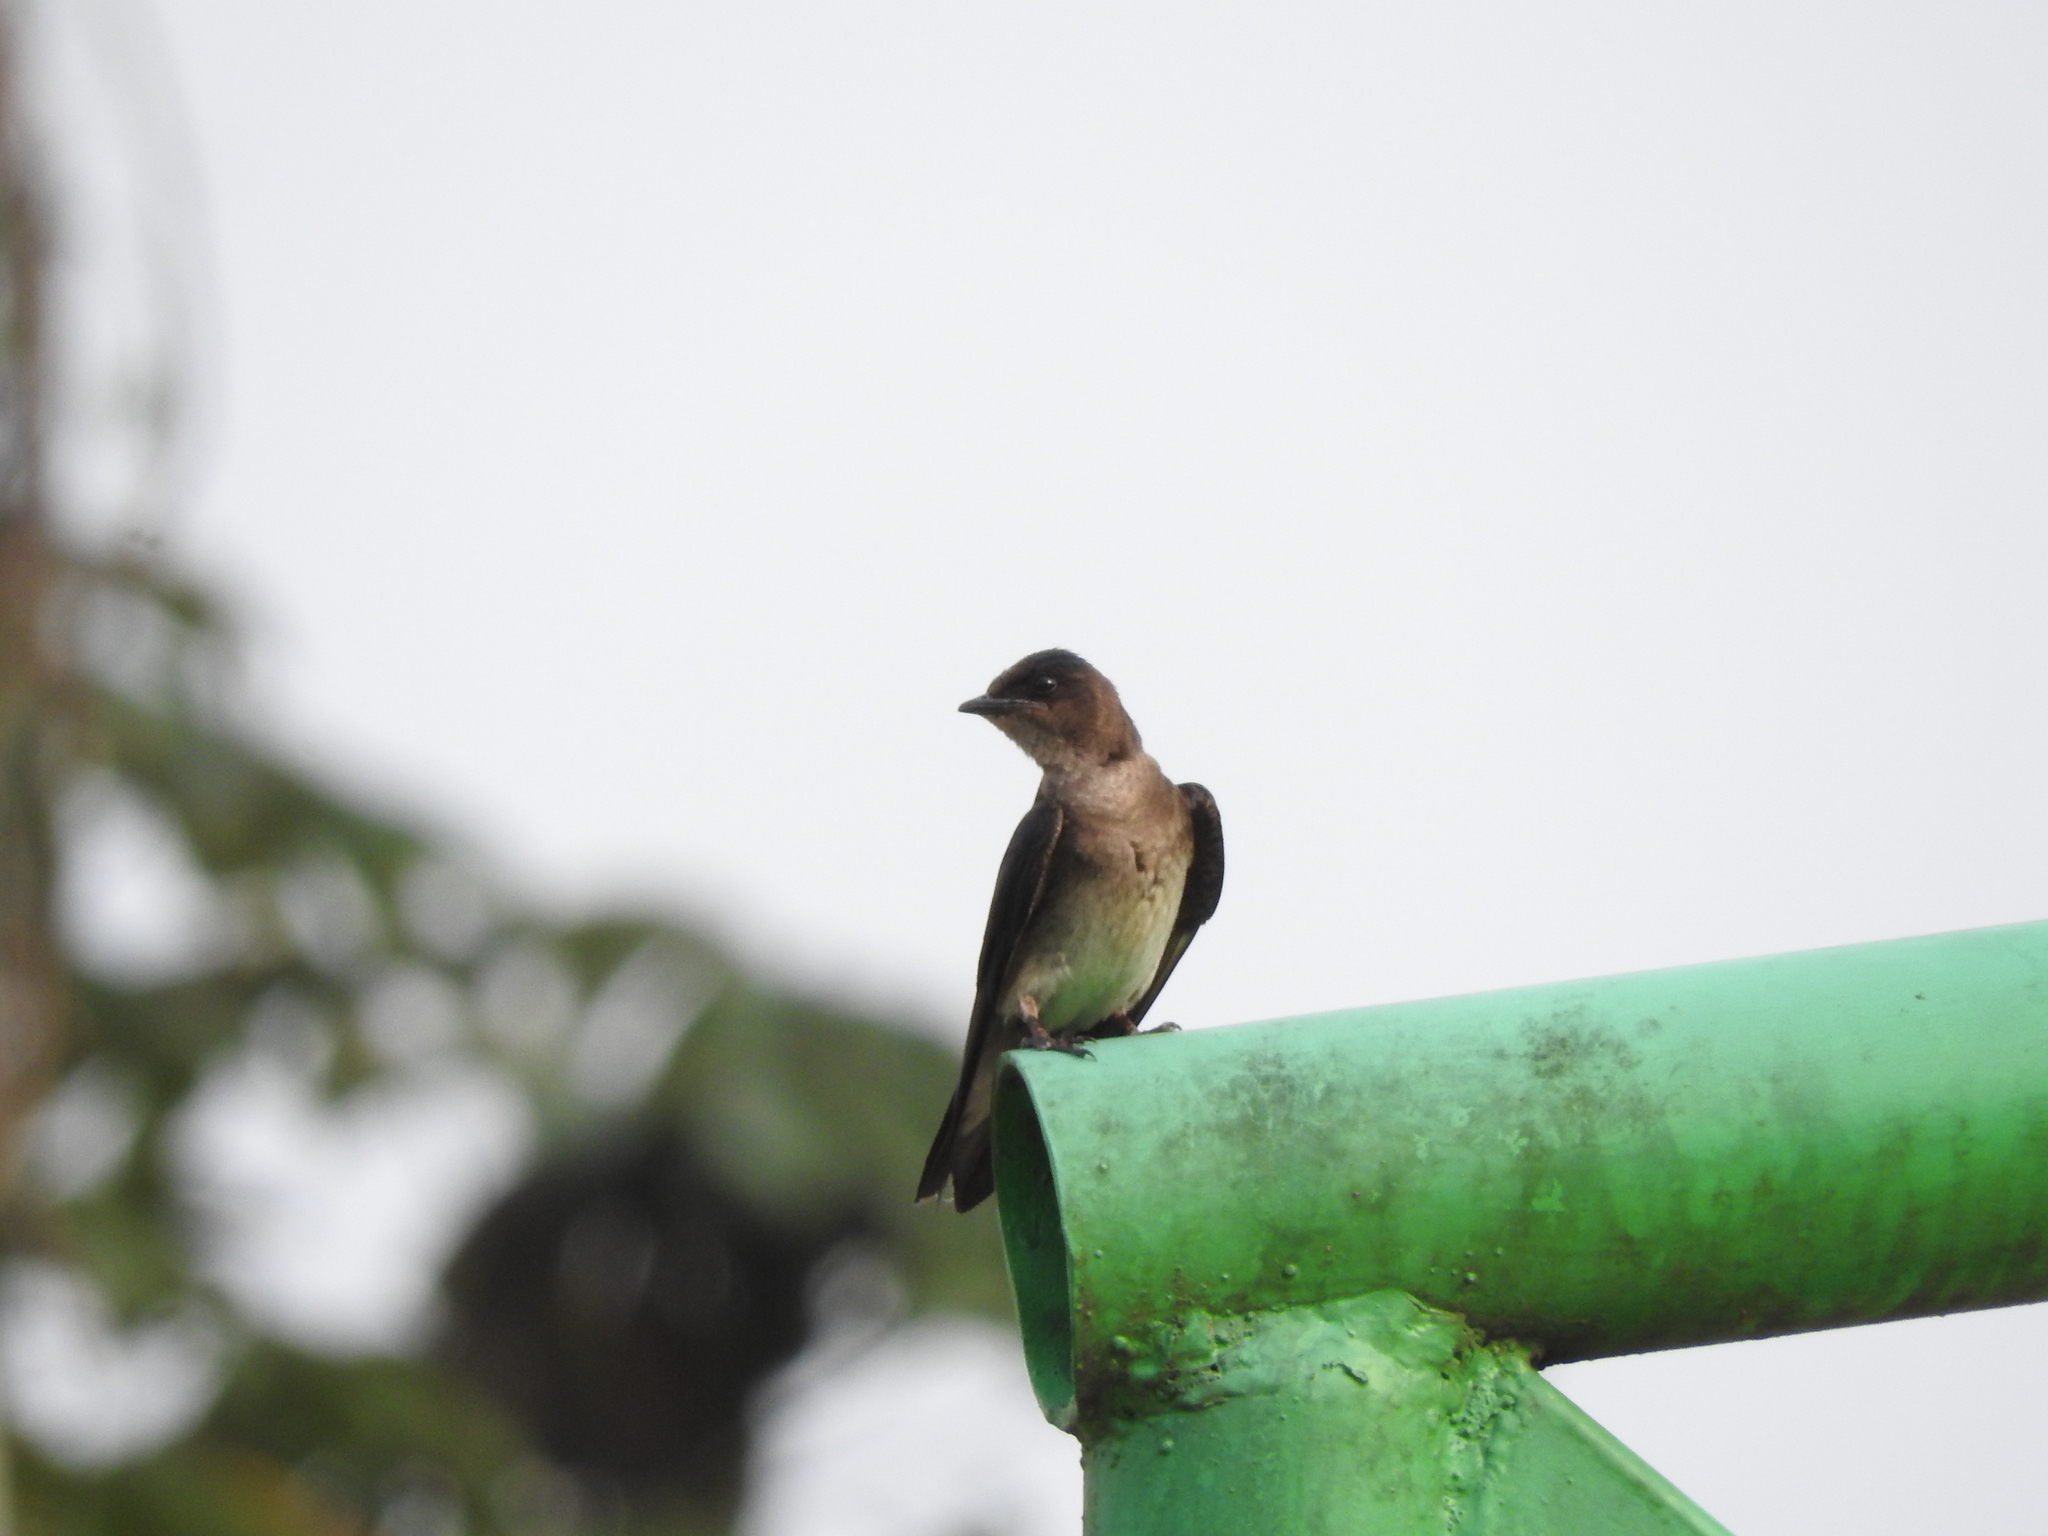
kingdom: Animalia
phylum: Chordata
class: Aves
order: Passeriformes
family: Hirundinidae
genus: Progne
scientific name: Progne chalybea
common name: Grey-breasted martin
